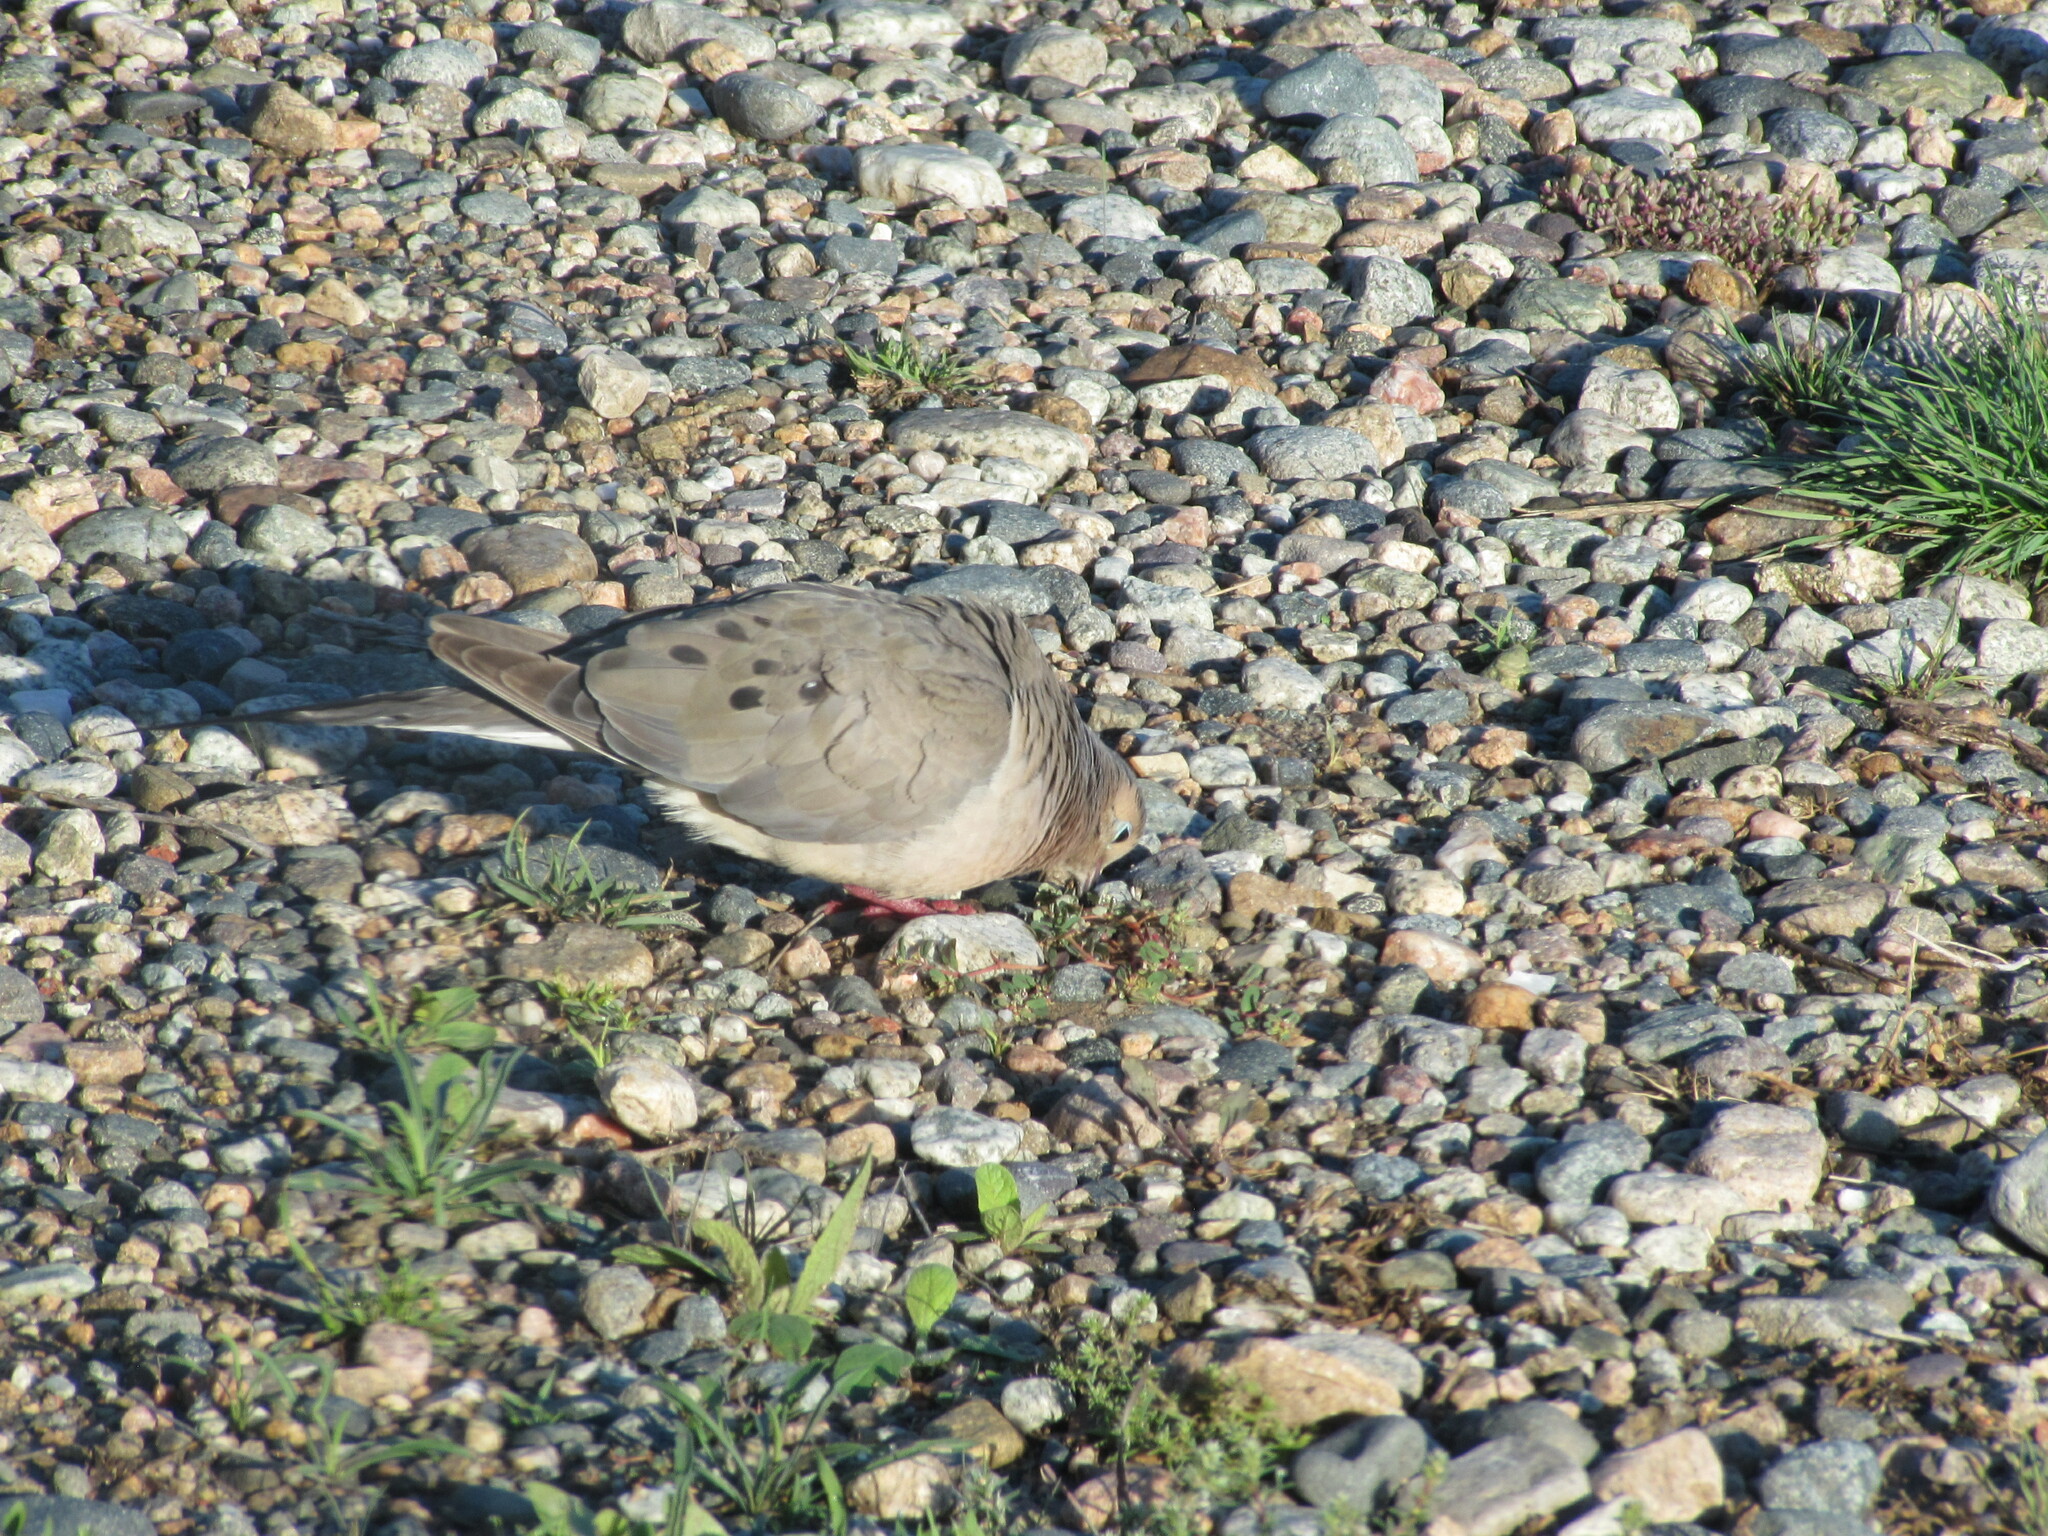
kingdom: Animalia
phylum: Chordata
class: Aves
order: Columbiformes
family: Columbidae
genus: Zenaida
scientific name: Zenaida macroura
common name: Mourning dove
